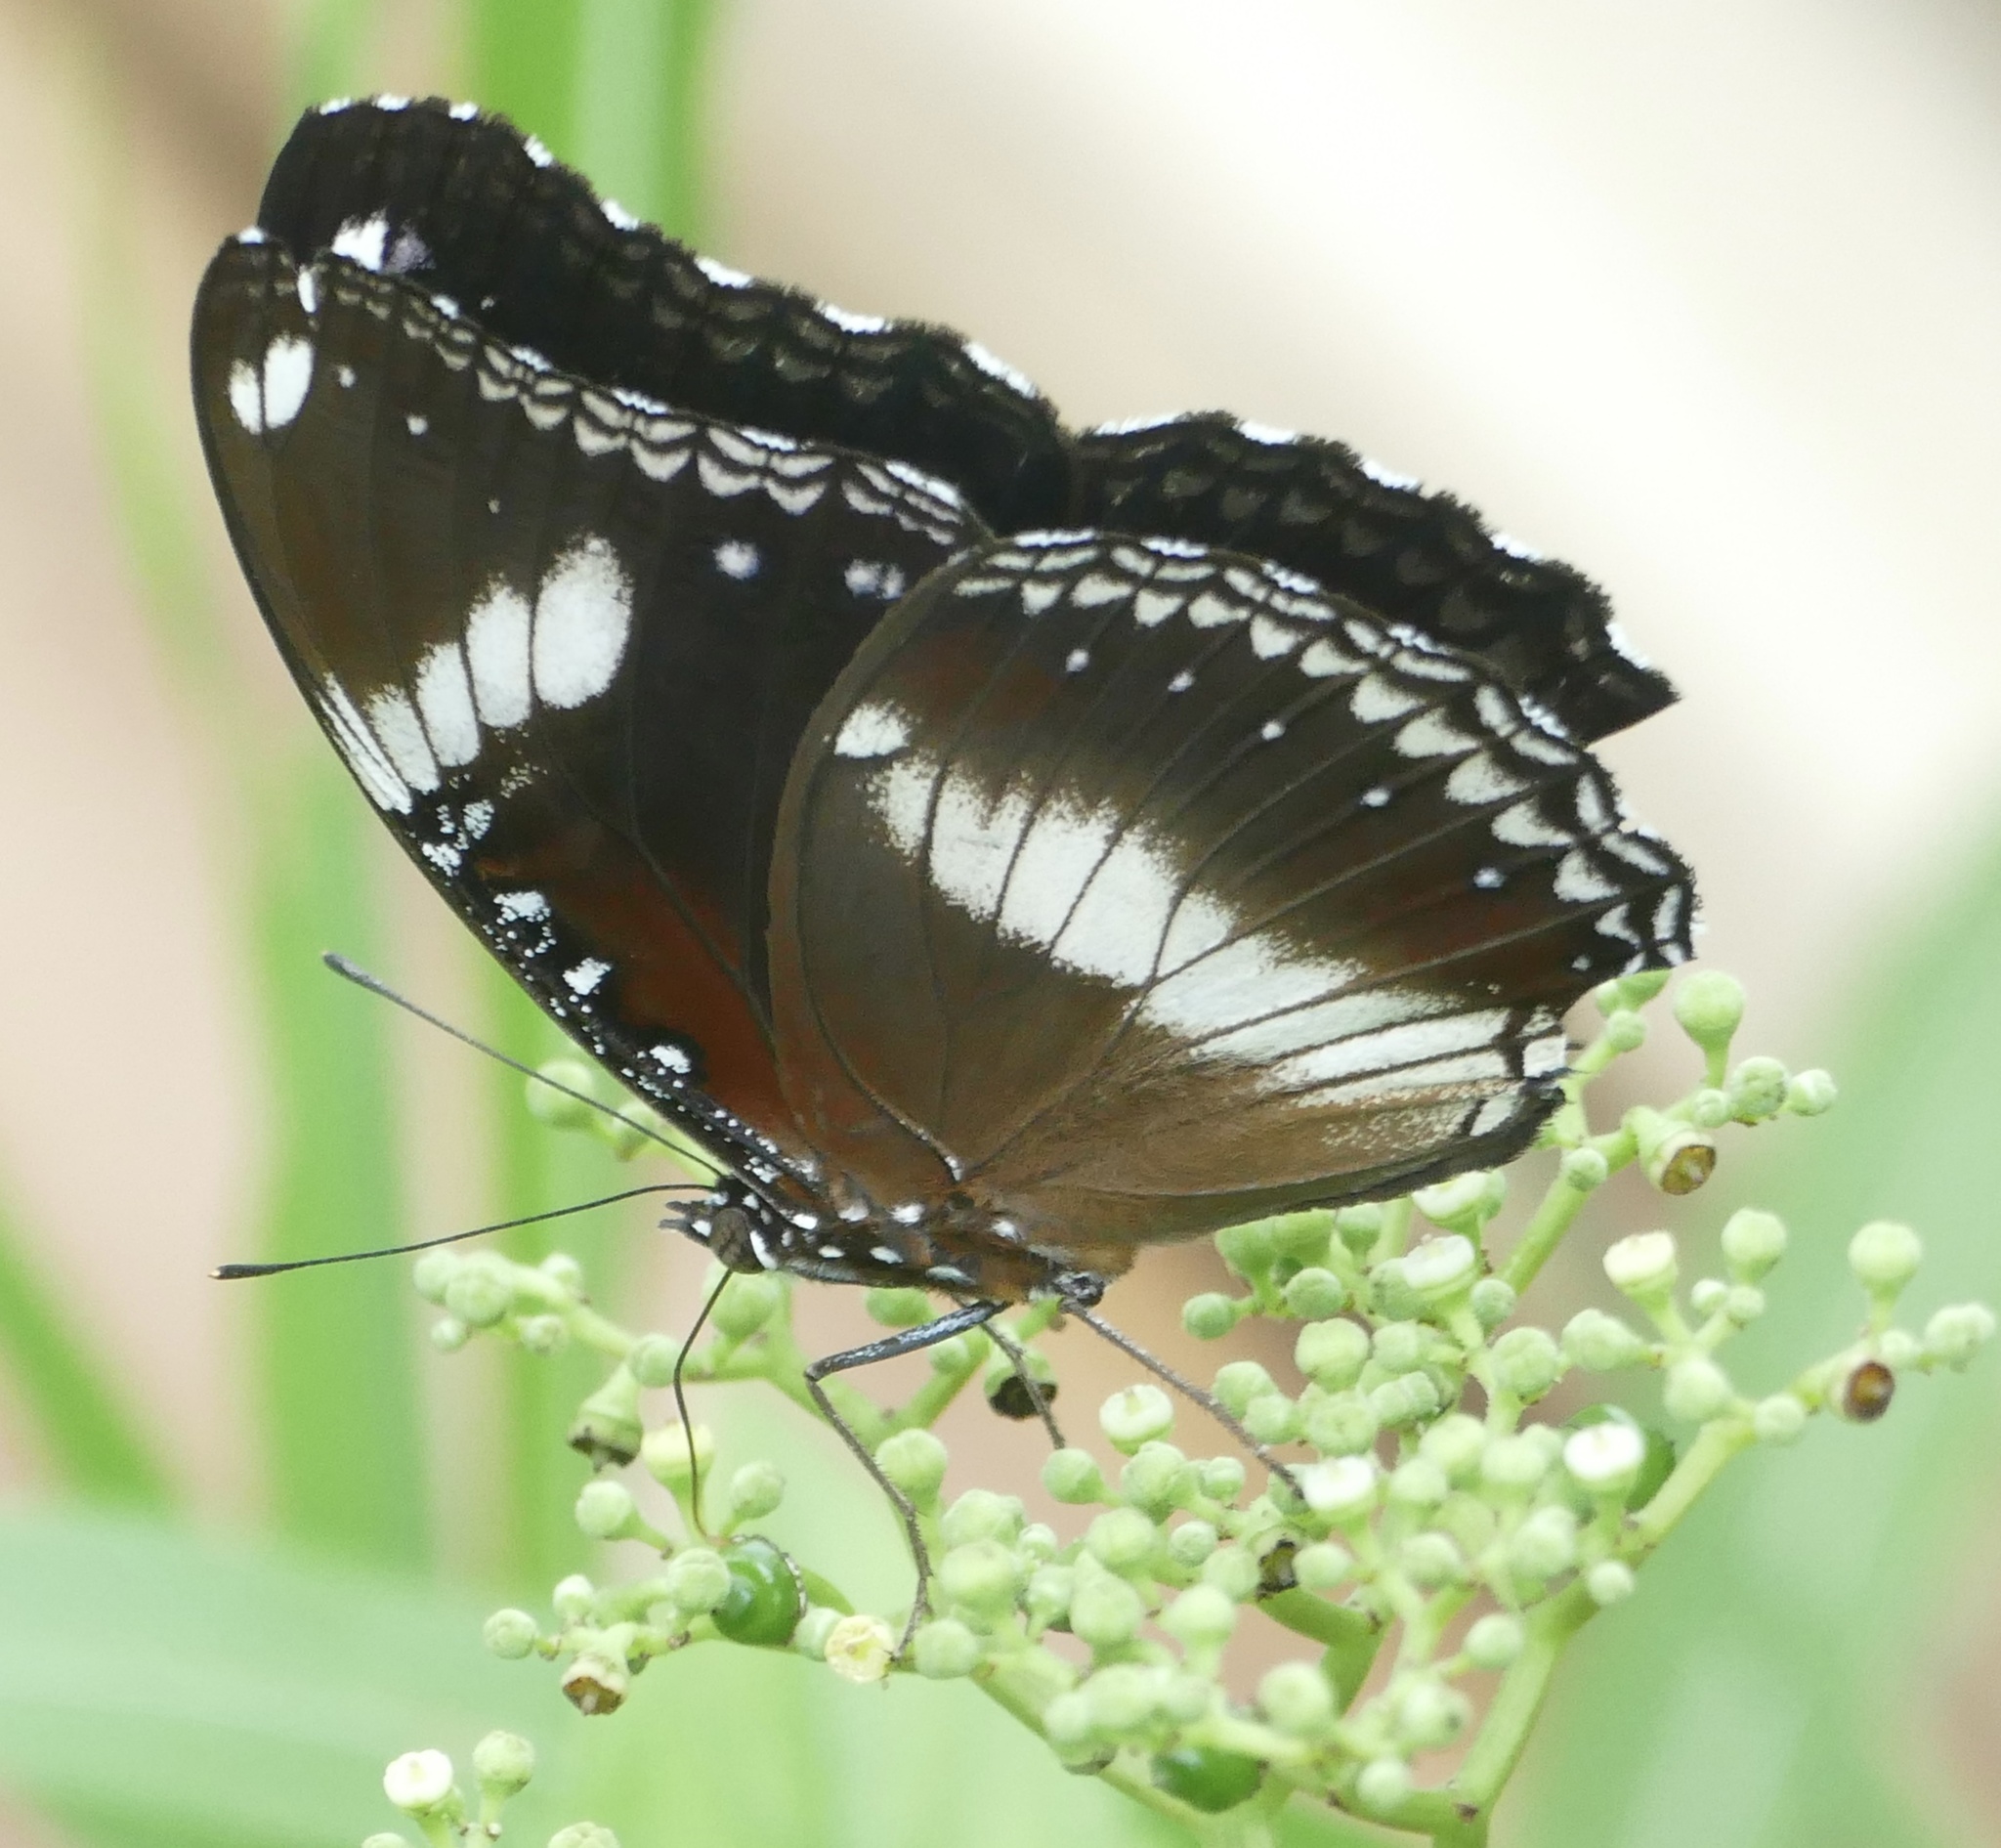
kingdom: Animalia
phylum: Arthropoda
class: Insecta
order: Lepidoptera
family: Nymphalidae
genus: Hypolimnas
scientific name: Hypolimnas bolina
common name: Great eggfly
